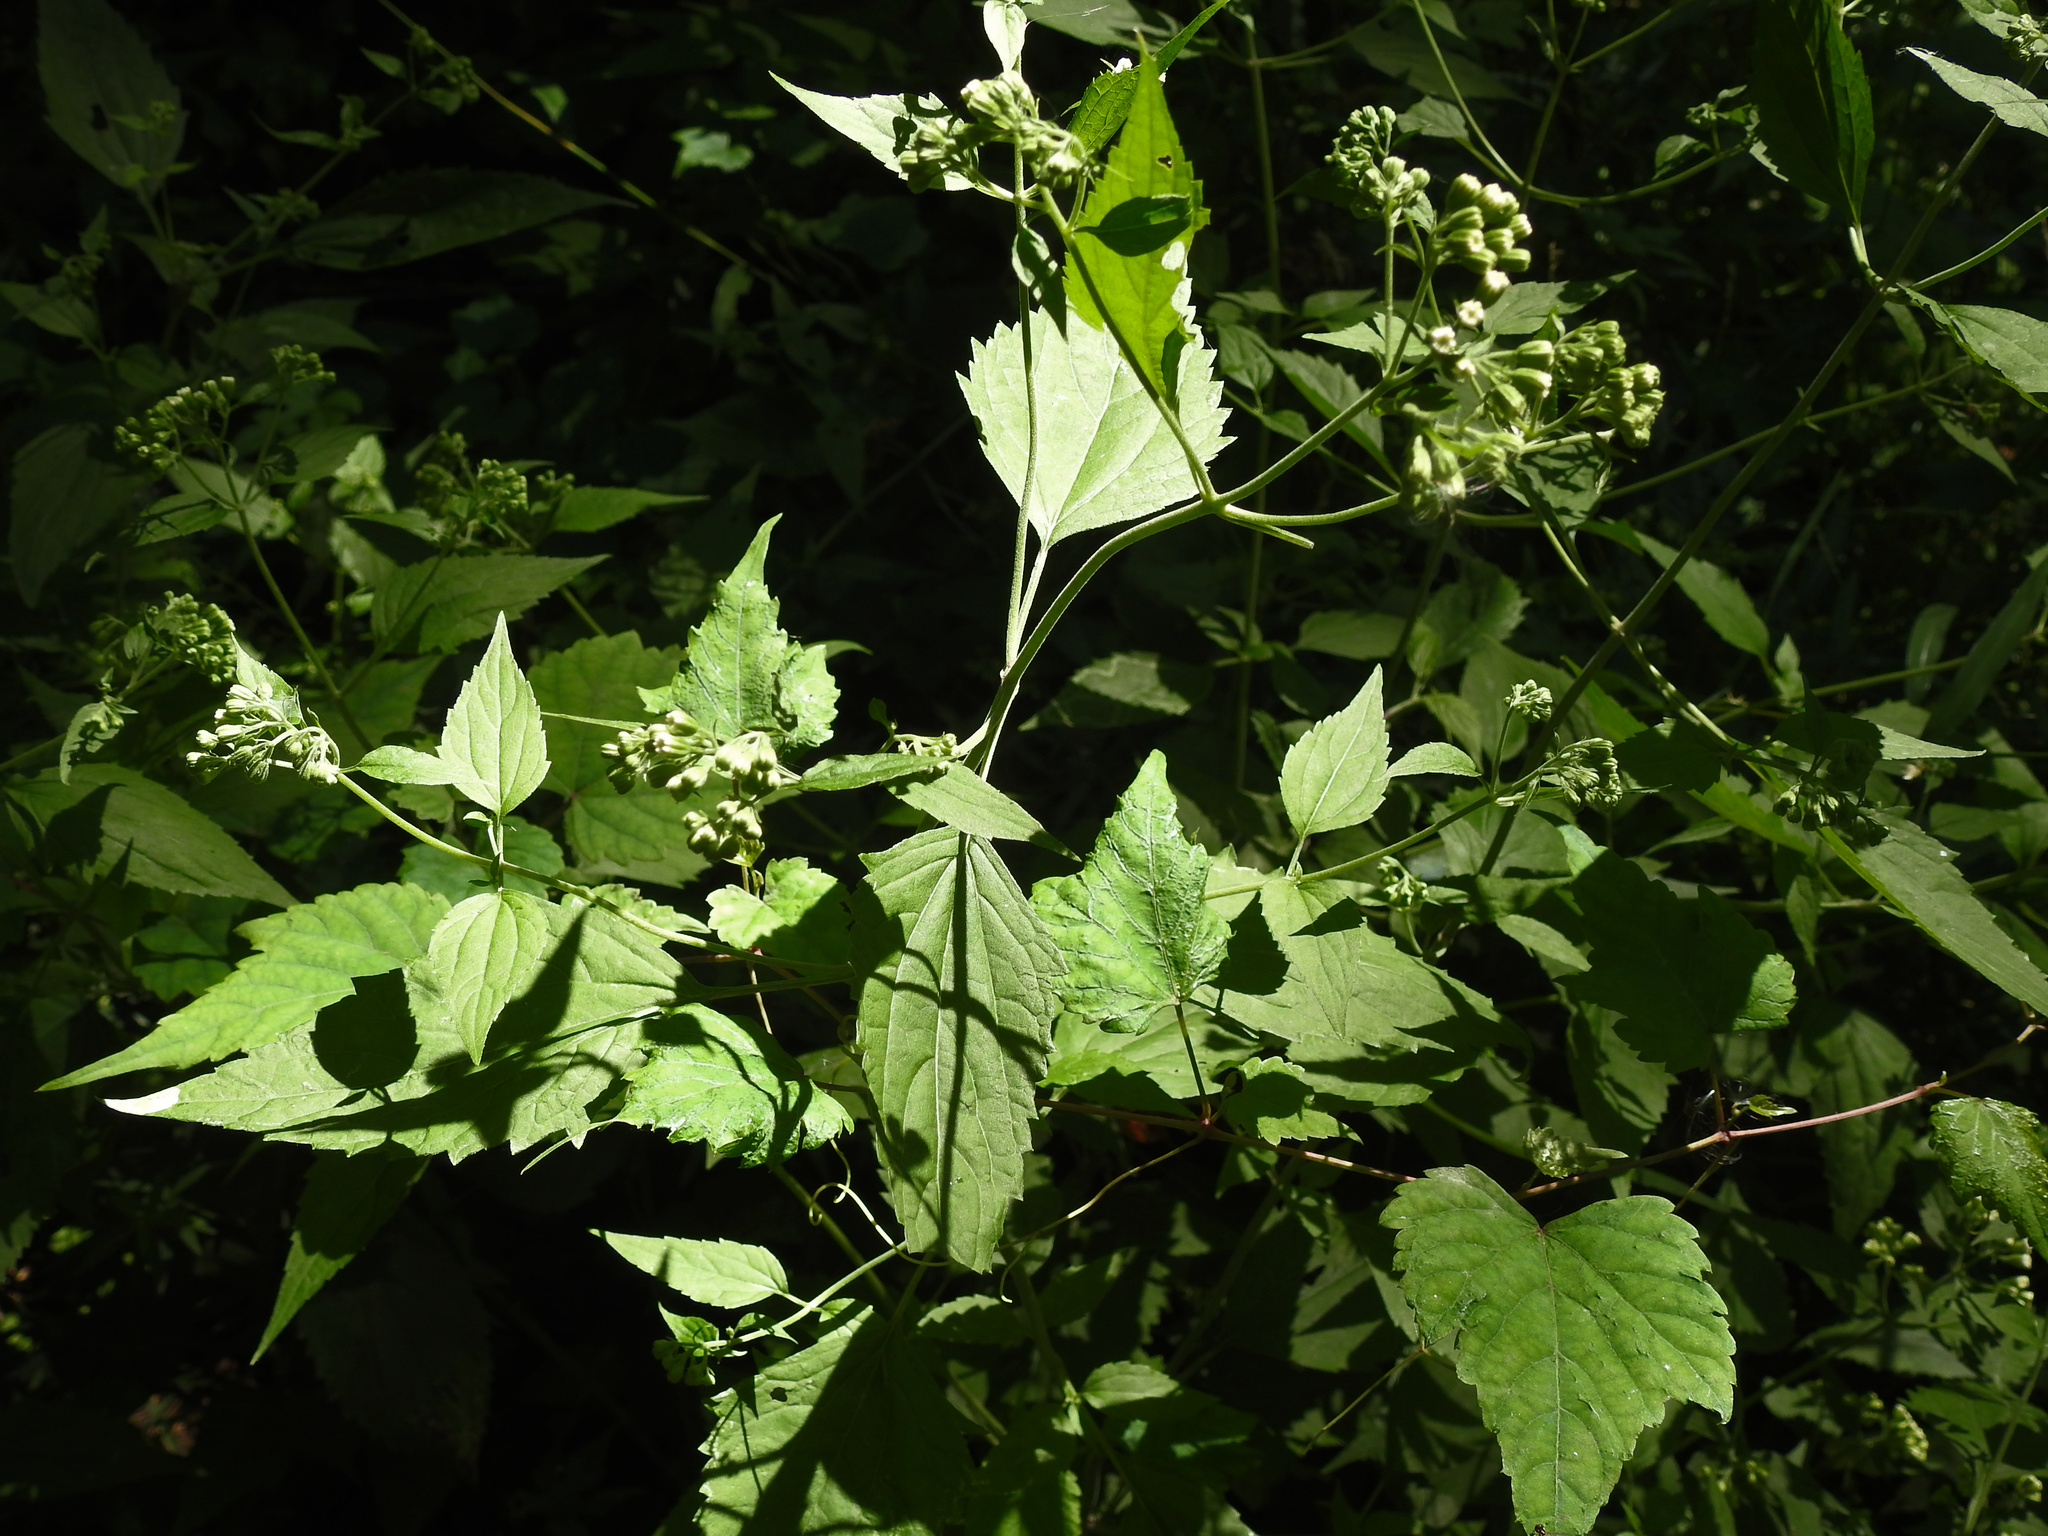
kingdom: Plantae
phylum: Tracheophyta
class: Magnoliopsida
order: Asterales
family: Asteraceae
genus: Ageratina
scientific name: Ageratina altissima
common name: White snakeroot
